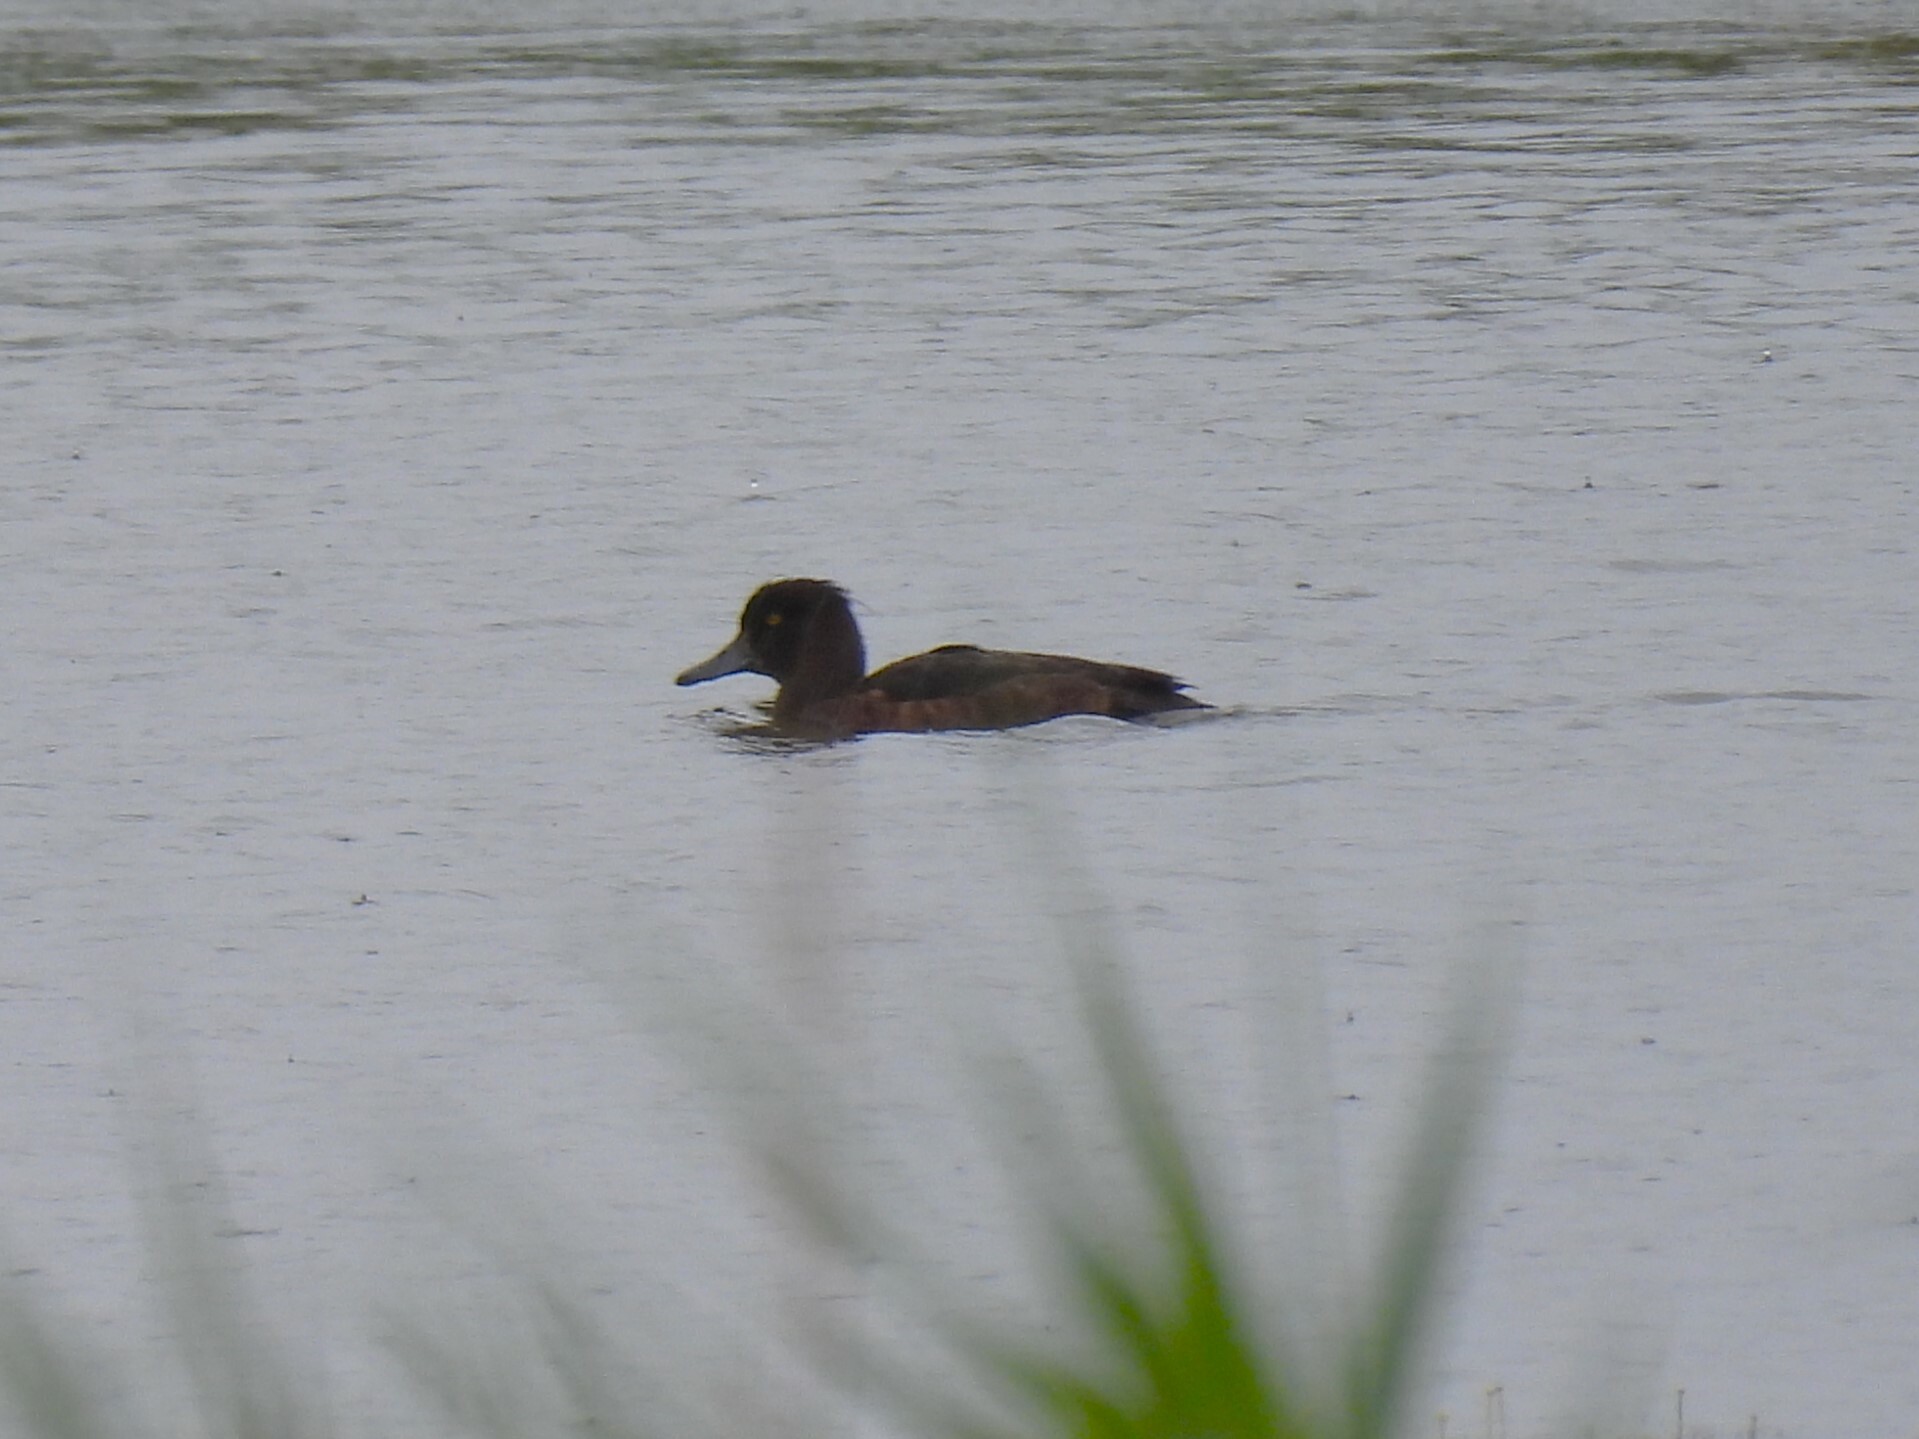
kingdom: Animalia
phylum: Chordata
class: Aves
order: Anseriformes
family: Anatidae
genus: Aythya
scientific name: Aythya fuligula
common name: Tufted duck
